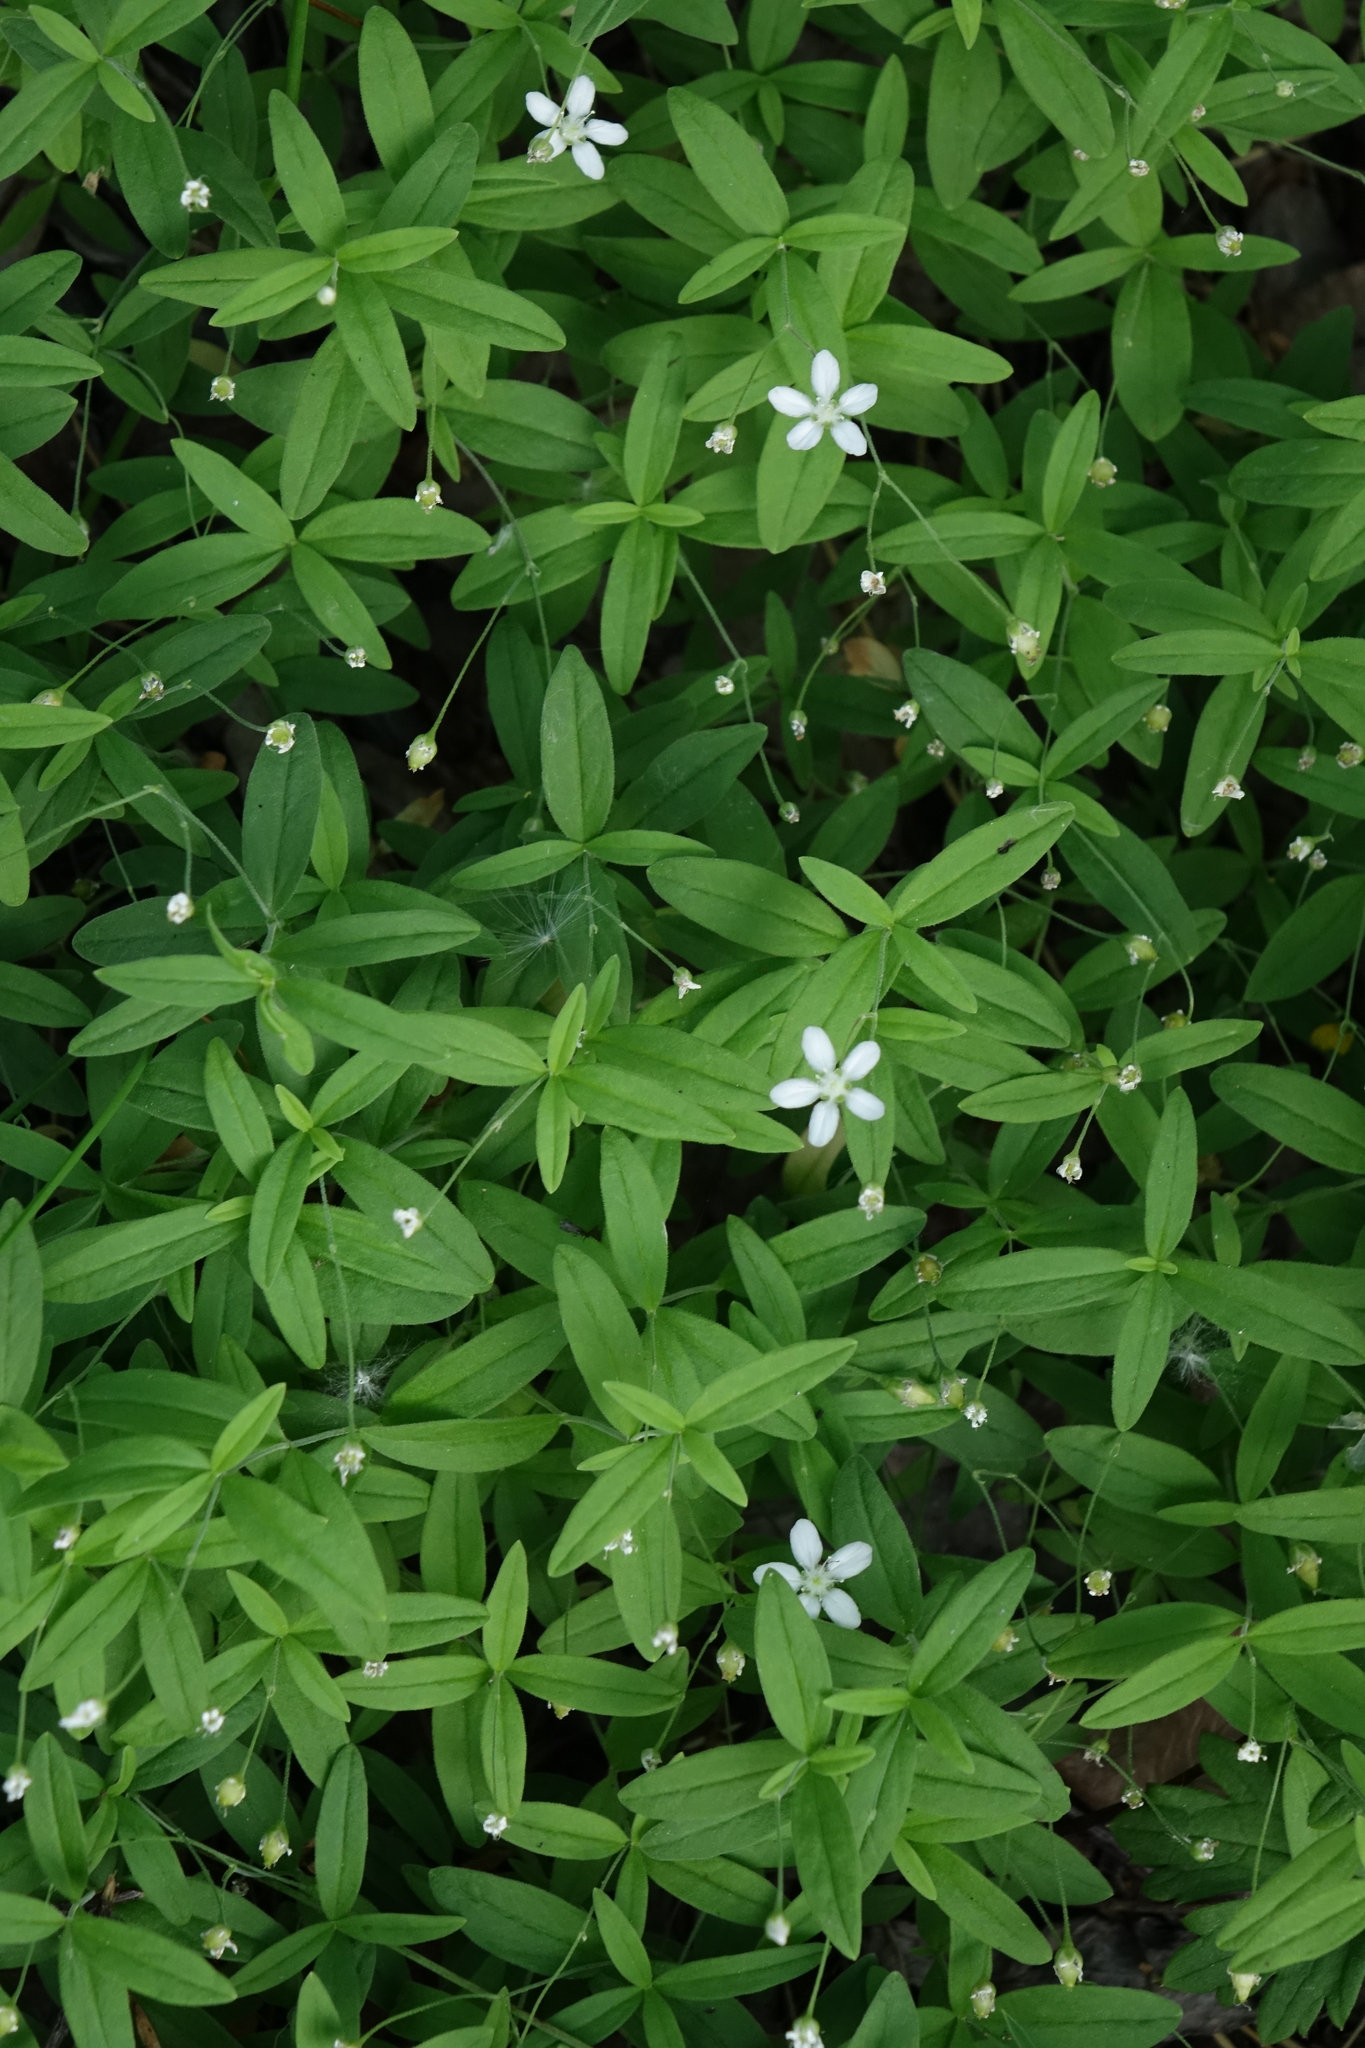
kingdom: Plantae
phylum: Tracheophyta
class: Magnoliopsida
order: Caryophyllales
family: Caryophyllaceae
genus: Moehringia
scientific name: Moehringia lateriflora
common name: Blunt-leaved sandwort
